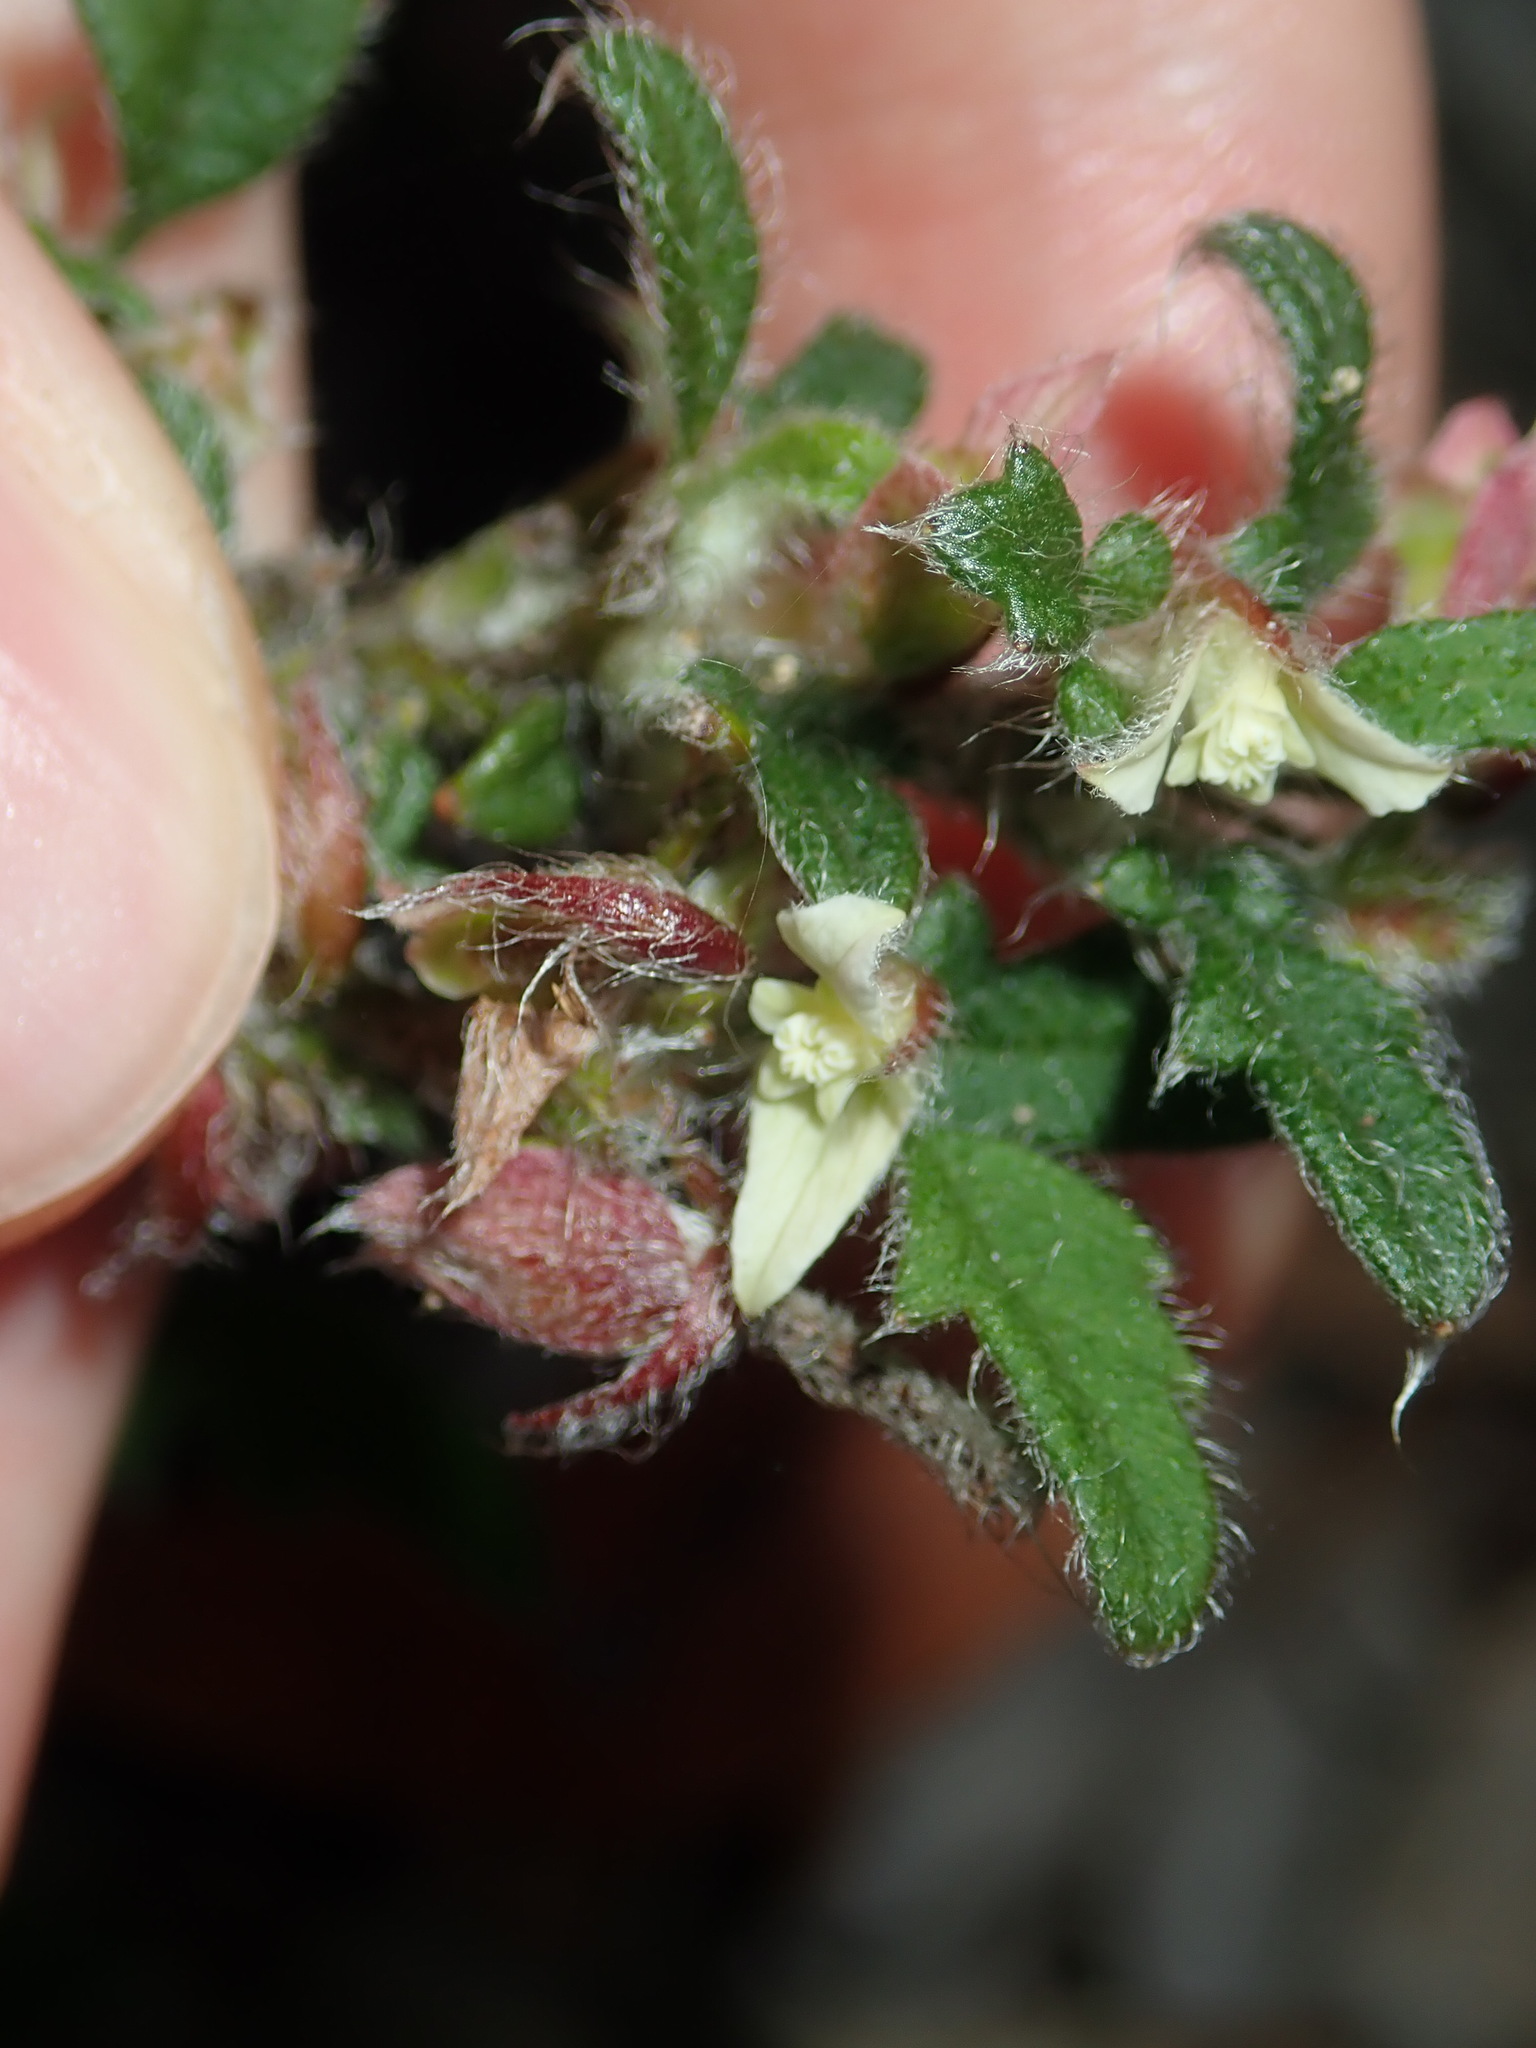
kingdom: Plantae
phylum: Tracheophyta
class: Magnoliopsida
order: Apiales
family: Apiaceae
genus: Xanthosia
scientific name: Xanthosia pilosa
